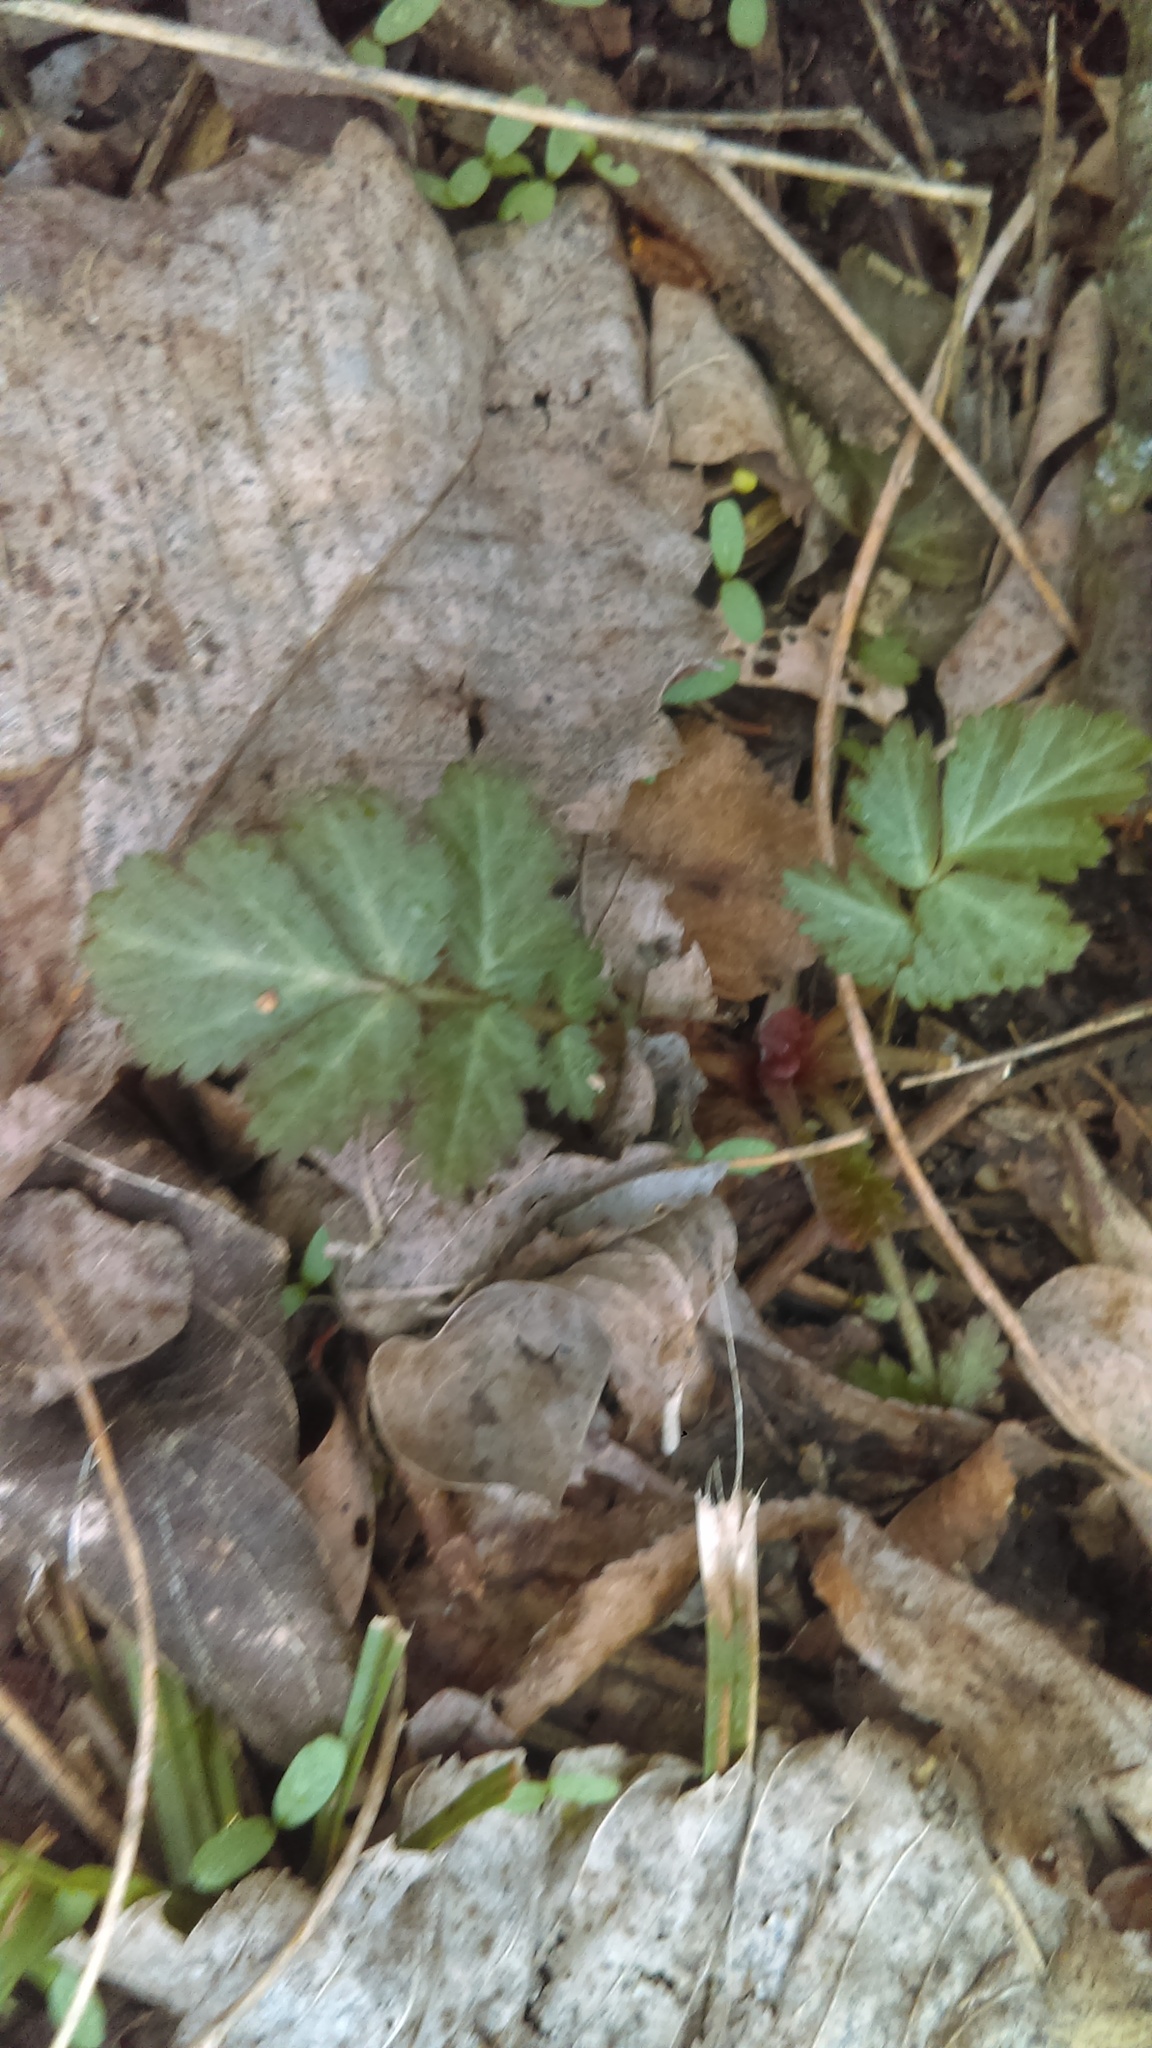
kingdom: Plantae
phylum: Tracheophyta
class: Magnoliopsida
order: Rosales
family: Rosaceae
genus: Geum
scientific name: Geum canadense
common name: White avens
